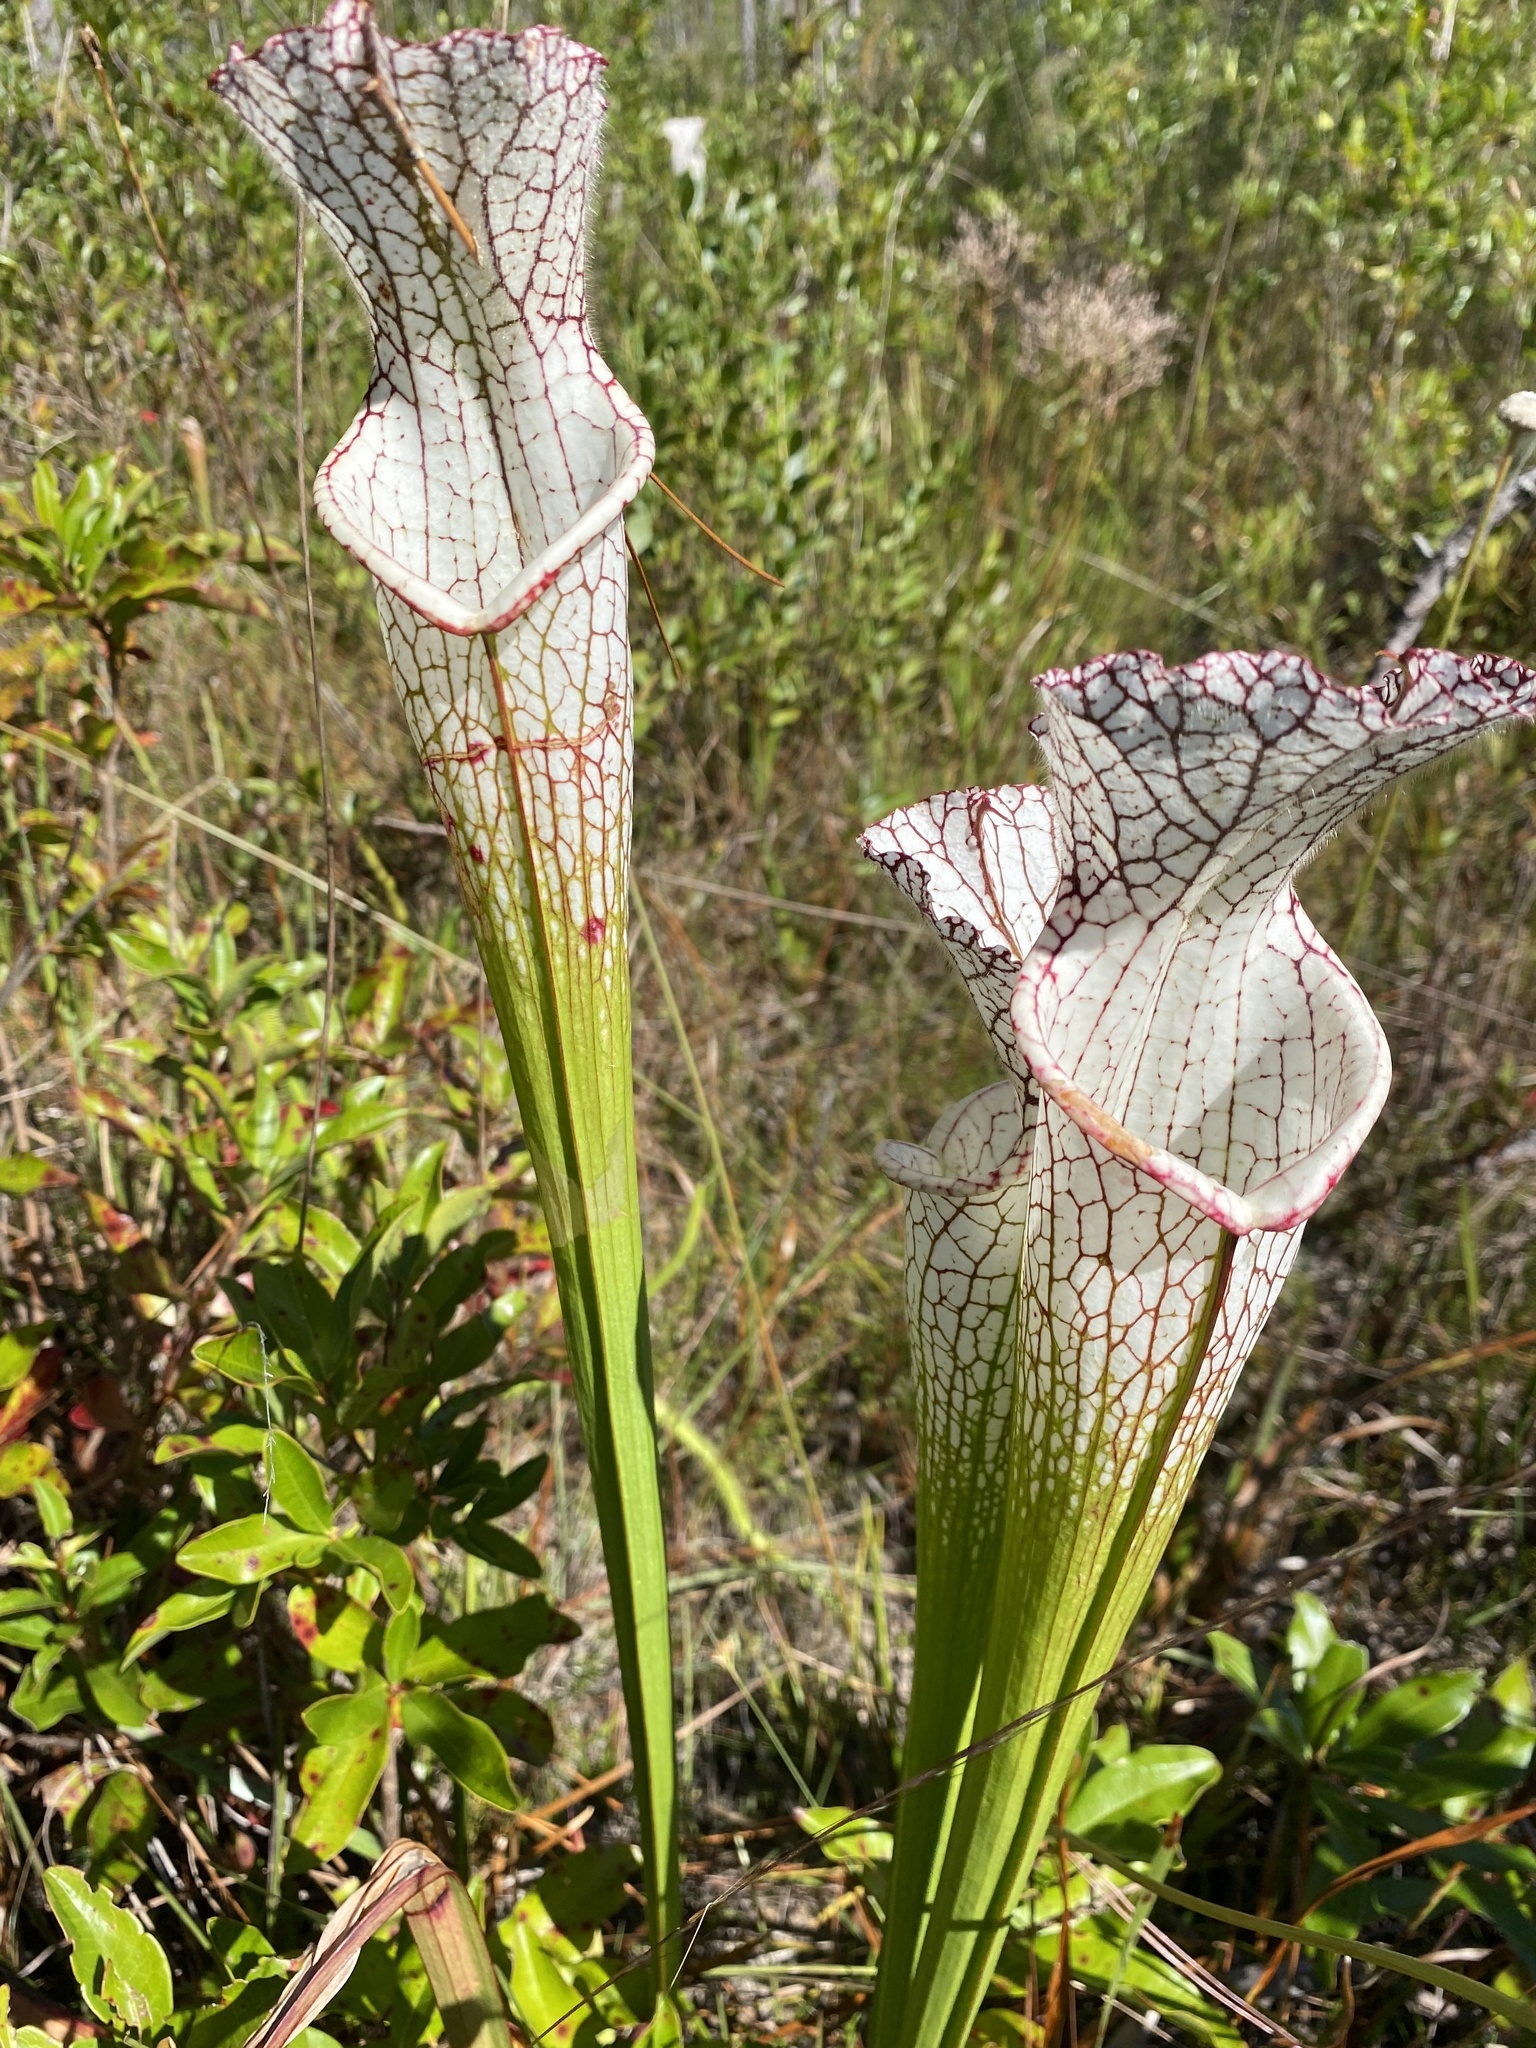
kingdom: Plantae
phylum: Tracheophyta
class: Magnoliopsida
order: Ericales
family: Sarraceniaceae
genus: Sarracenia
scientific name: Sarracenia leucophylla
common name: Purple trumpetleaf
